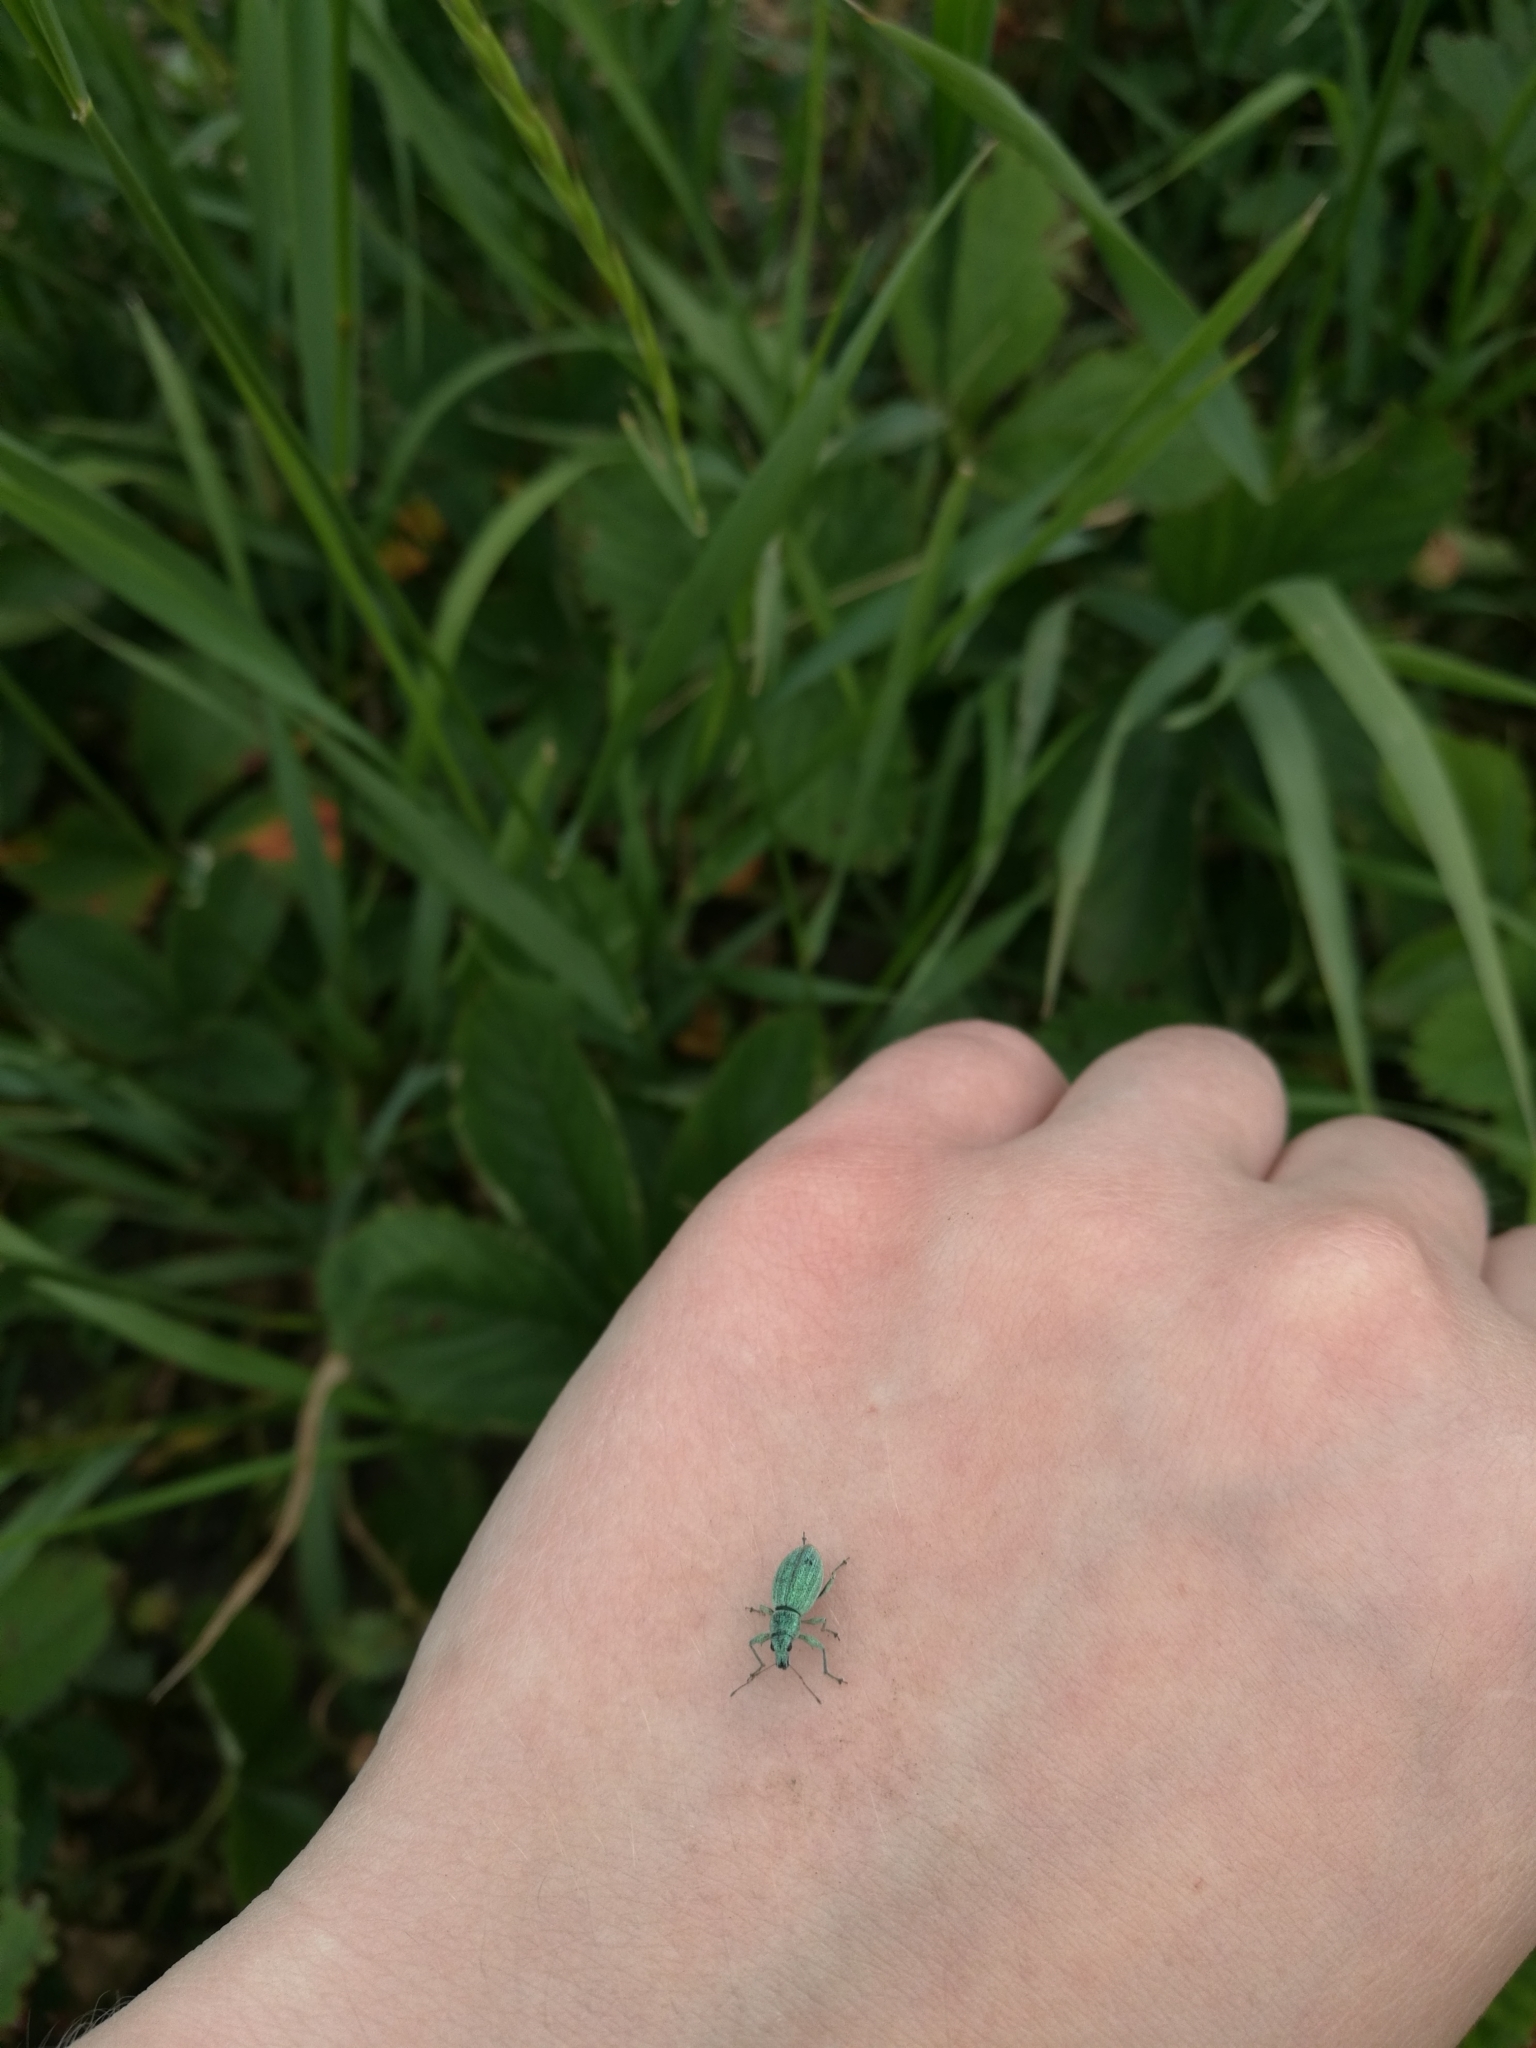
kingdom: Animalia
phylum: Arthropoda
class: Insecta
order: Coleoptera
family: Curculionidae
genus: Eusomus
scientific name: Eusomus ovulum
